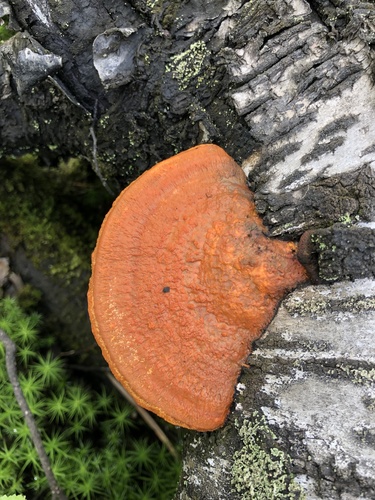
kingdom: Fungi
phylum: Basidiomycota
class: Agaricomycetes
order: Polyporales
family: Polyporaceae
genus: Trametes
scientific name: Trametes cinnabarina
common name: Northern cinnabar polypore
